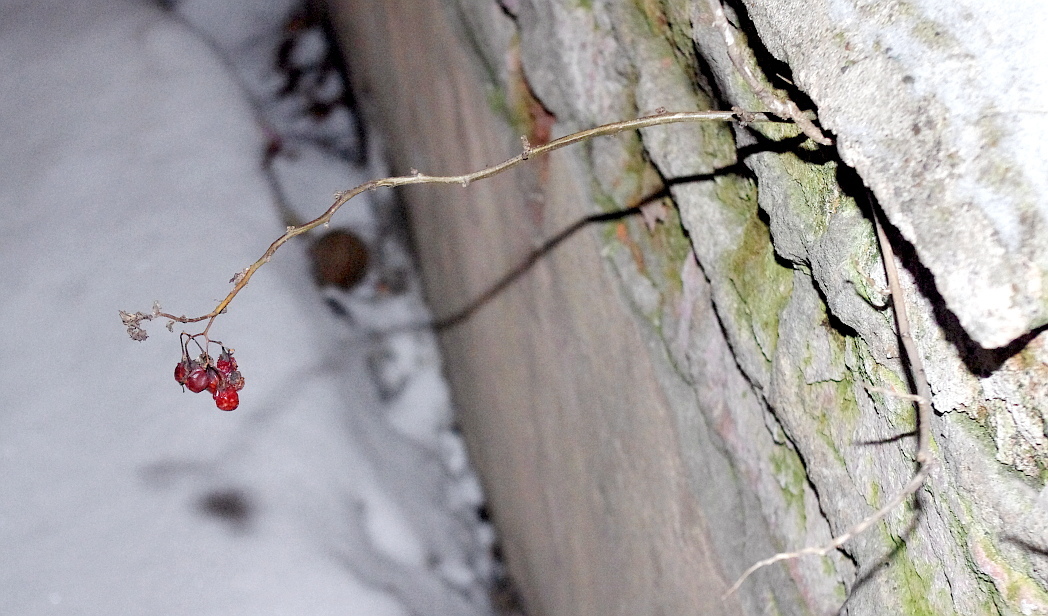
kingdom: Plantae
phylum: Tracheophyta
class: Magnoliopsida
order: Solanales
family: Solanaceae
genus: Solanum
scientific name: Solanum dulcamara
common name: Climbing nightshade
